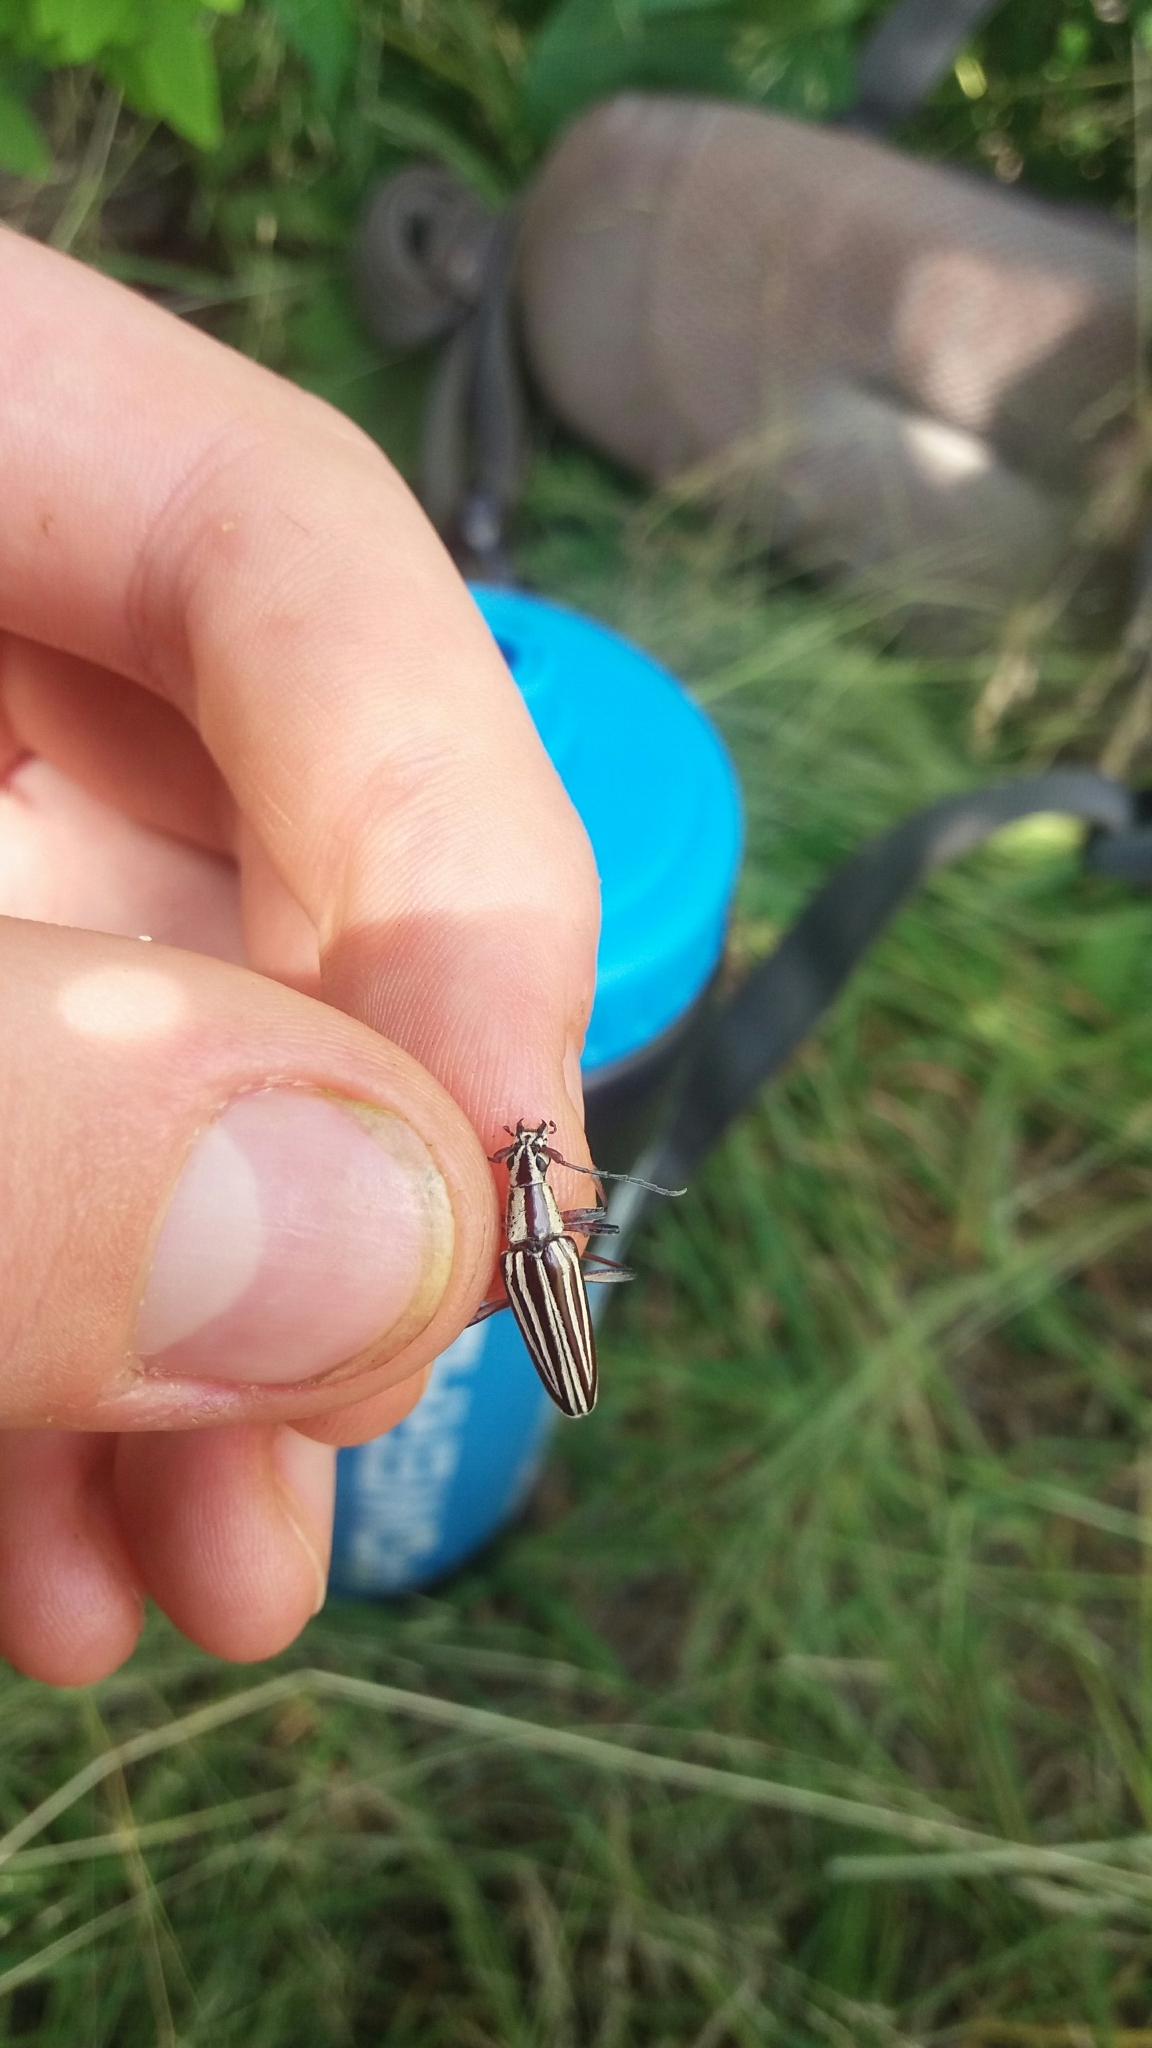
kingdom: Animalia
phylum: Arthropoda
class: Insecta
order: Coleoptera
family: Cerambycidae
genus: Coptomma
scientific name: Coptomma sulcatum
